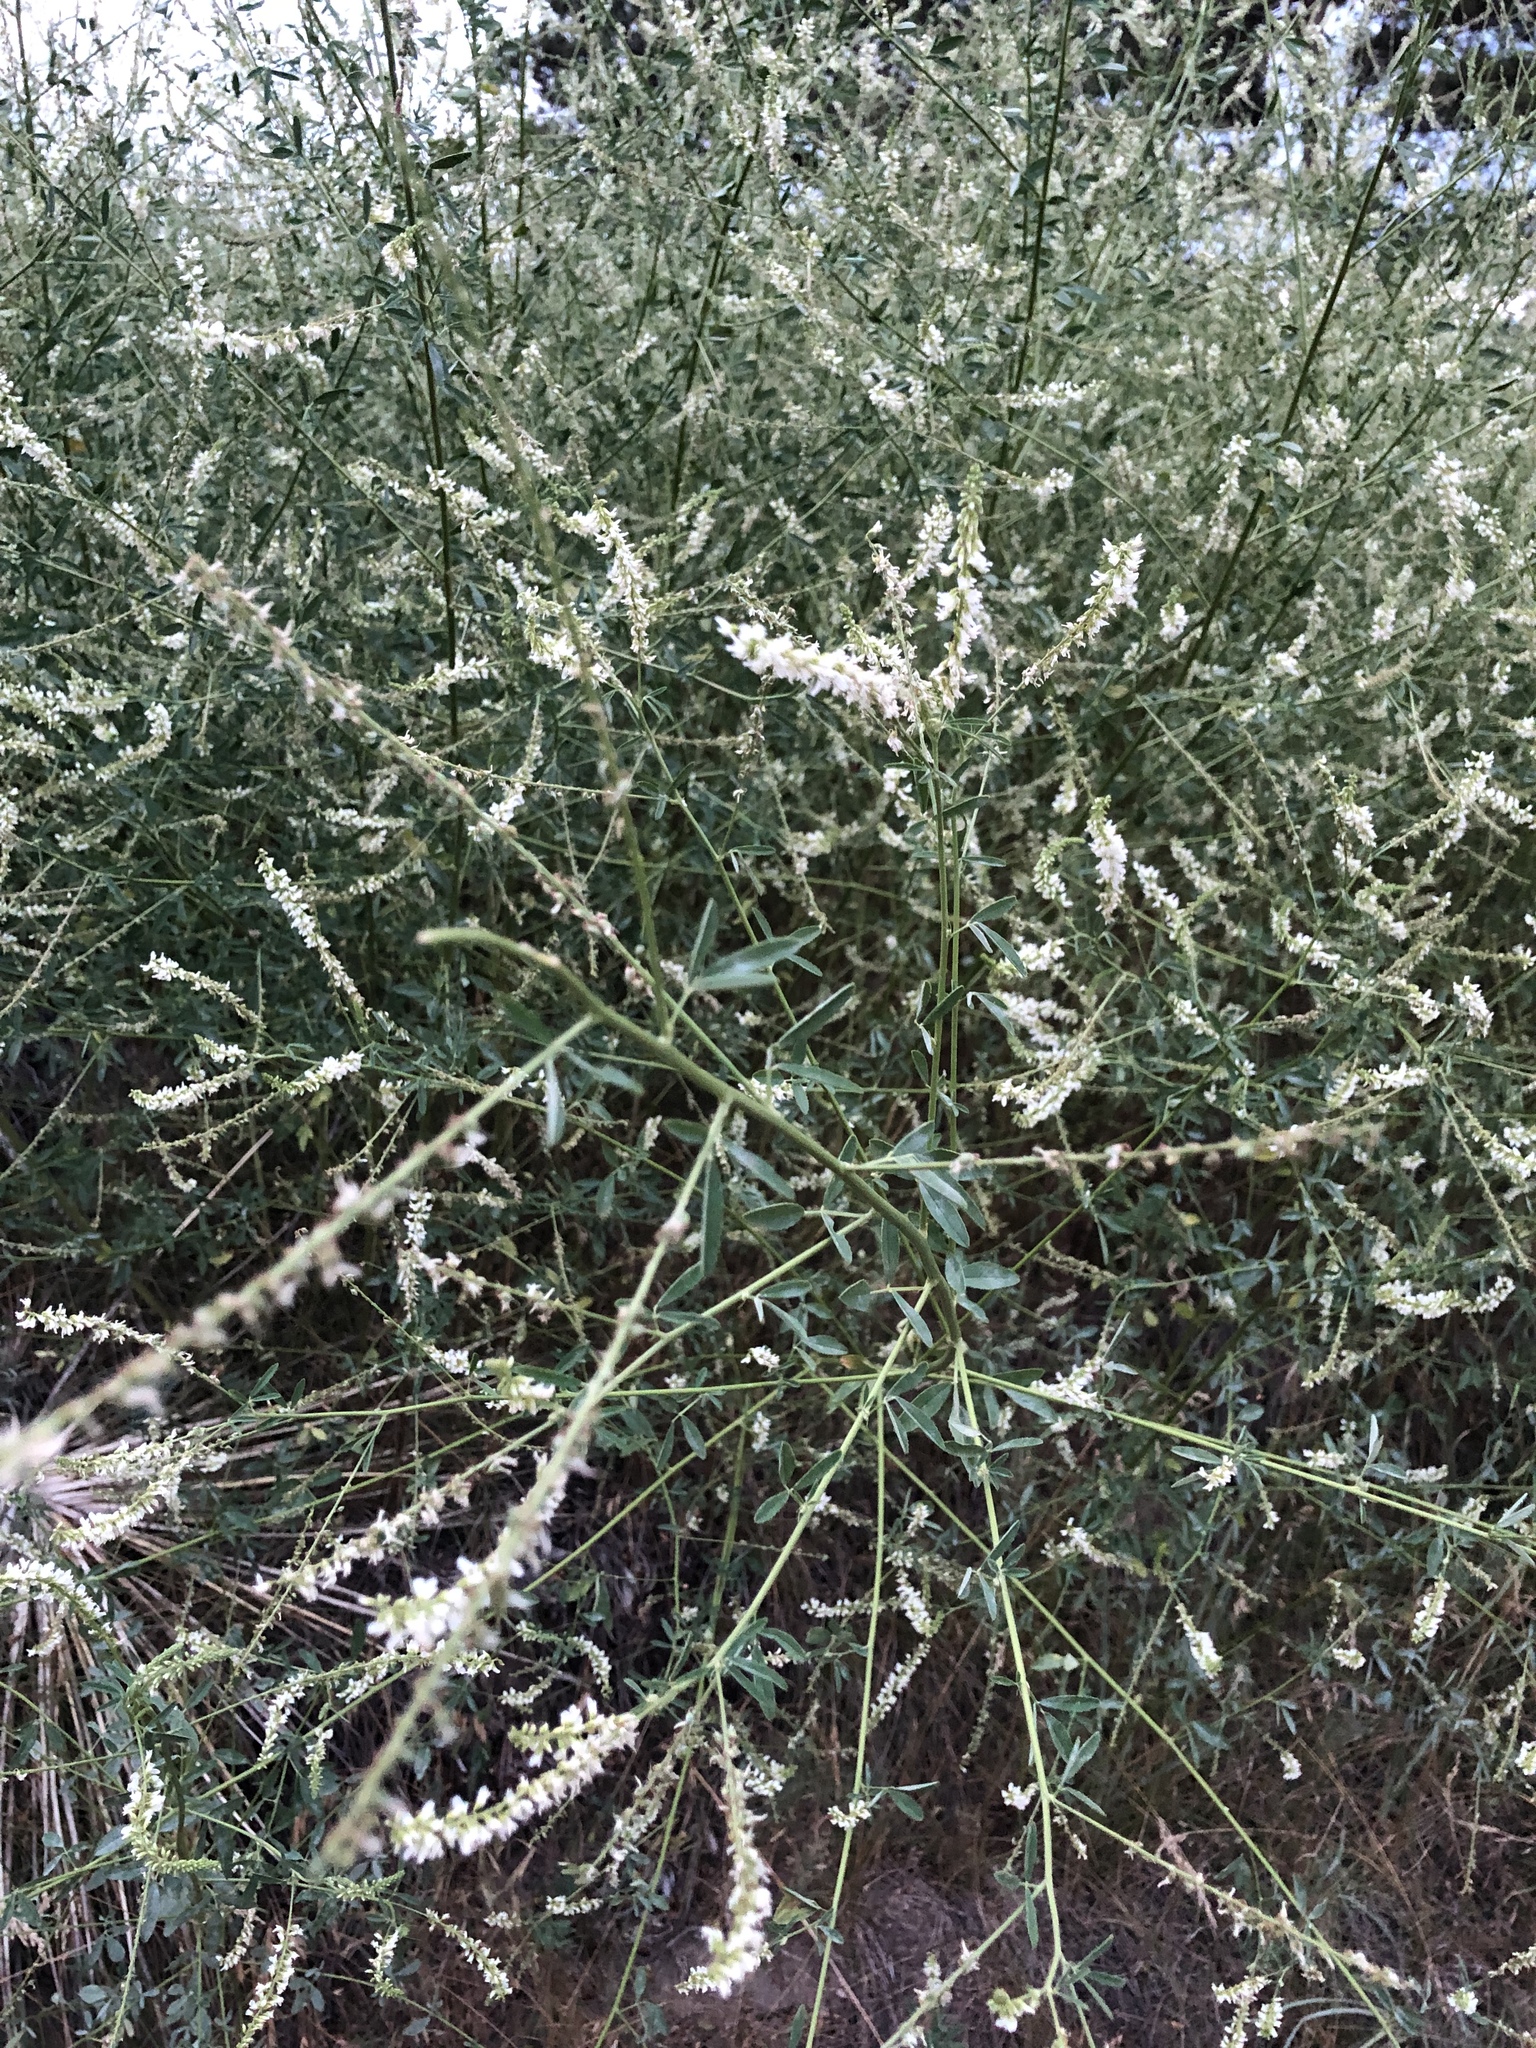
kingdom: Plantae
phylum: Tracheophyta
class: Magnoliopsida
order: Fabales
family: Fabaceae
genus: Melilotus
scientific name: Melilotus albus
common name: White melilot
